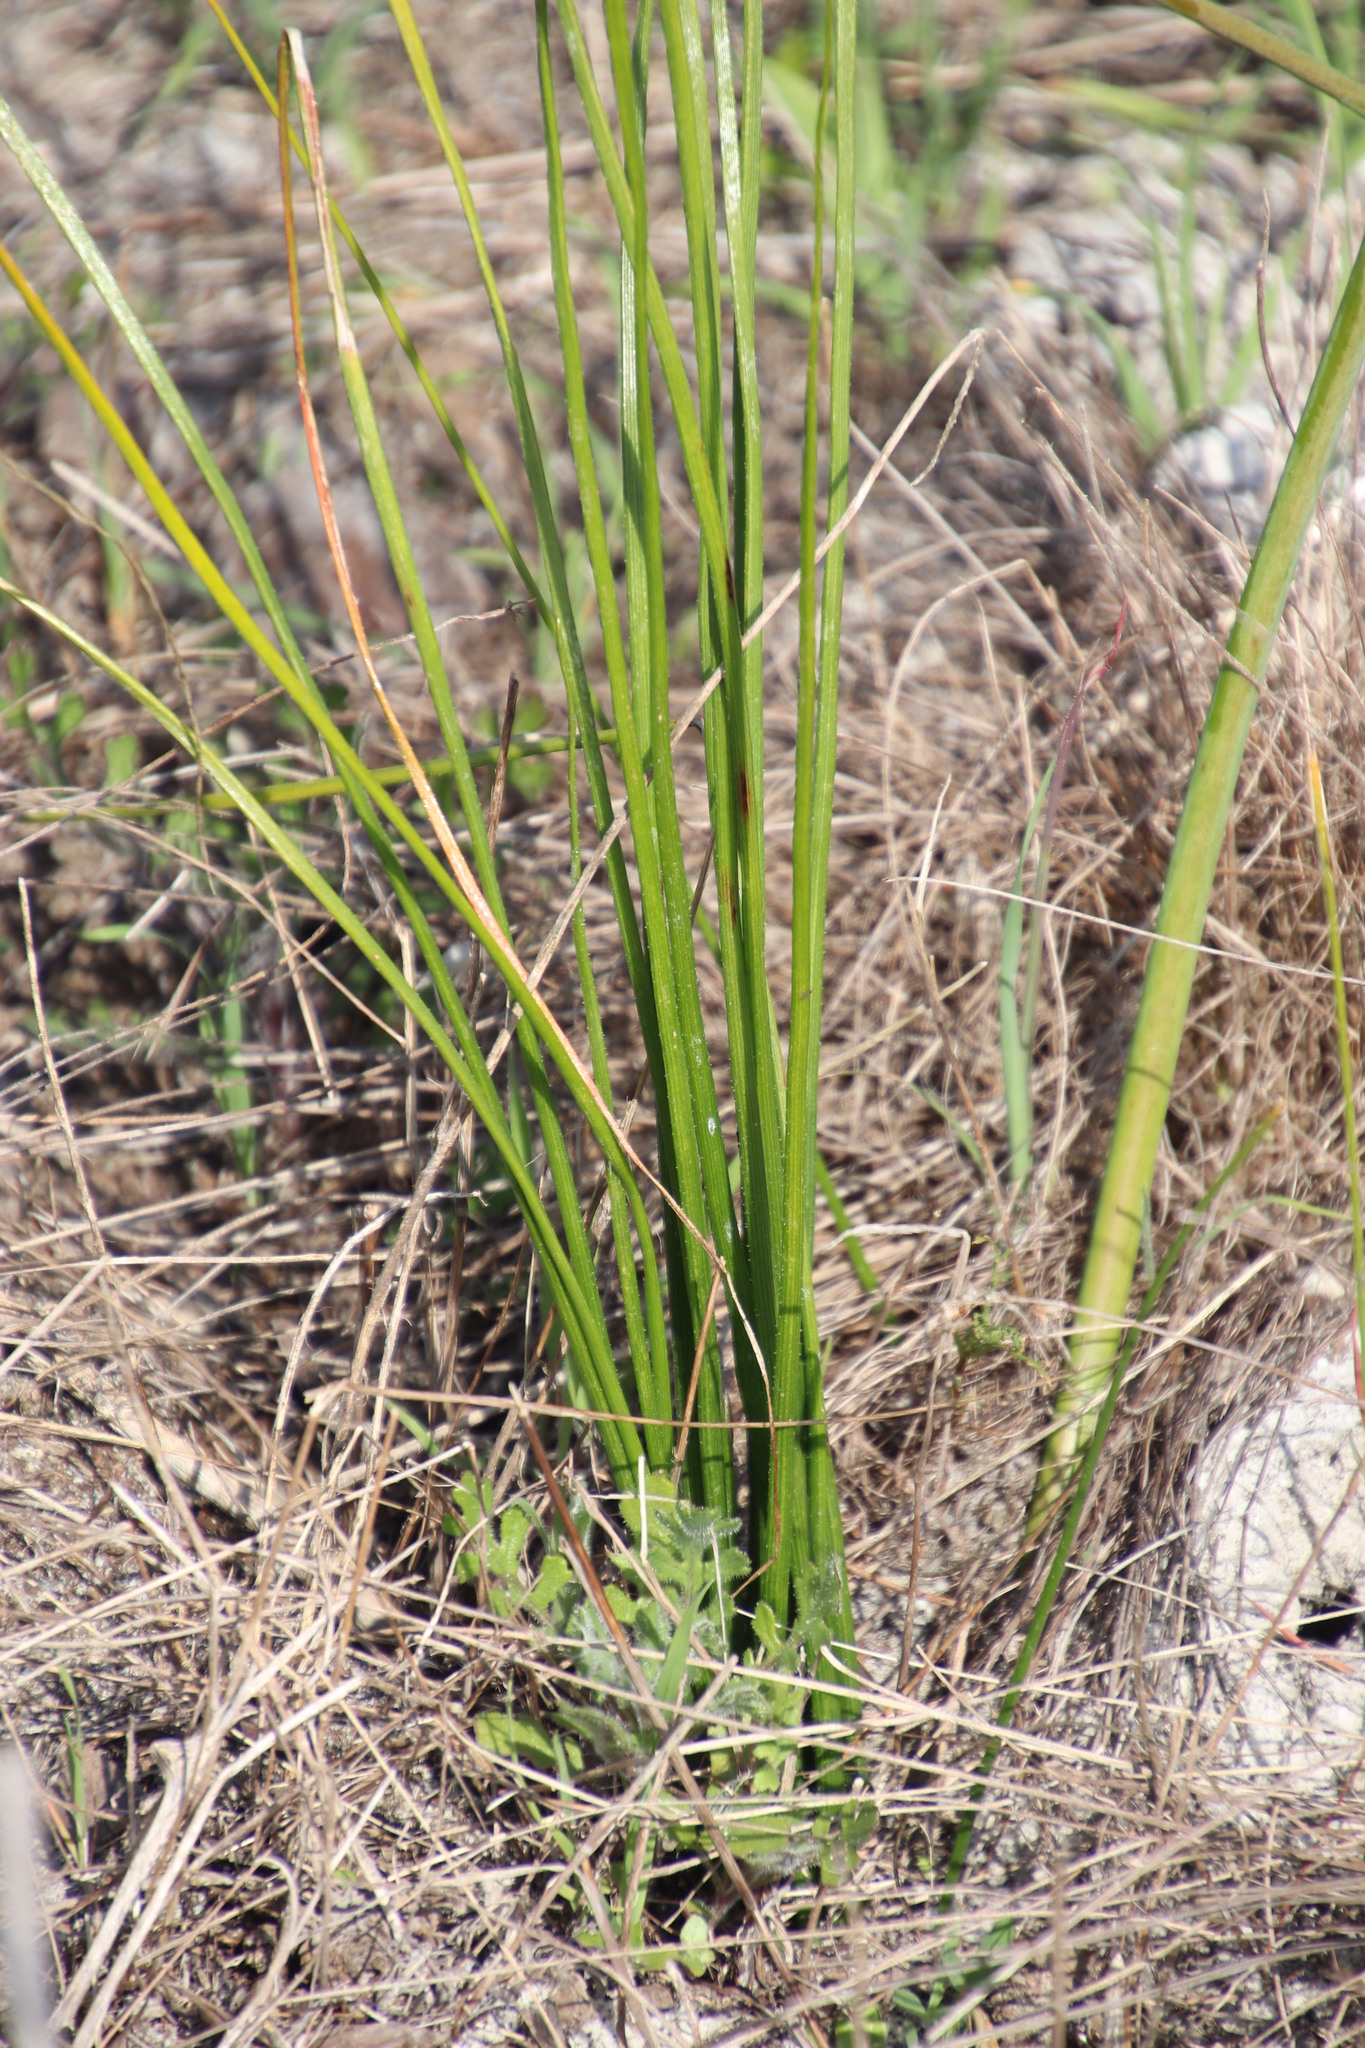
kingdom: Plantae
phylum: Tracheophyta
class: Liliopsida
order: Asparagales
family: Asphodelaceae
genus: Trachyandra
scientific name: Trachyandra revoluta
